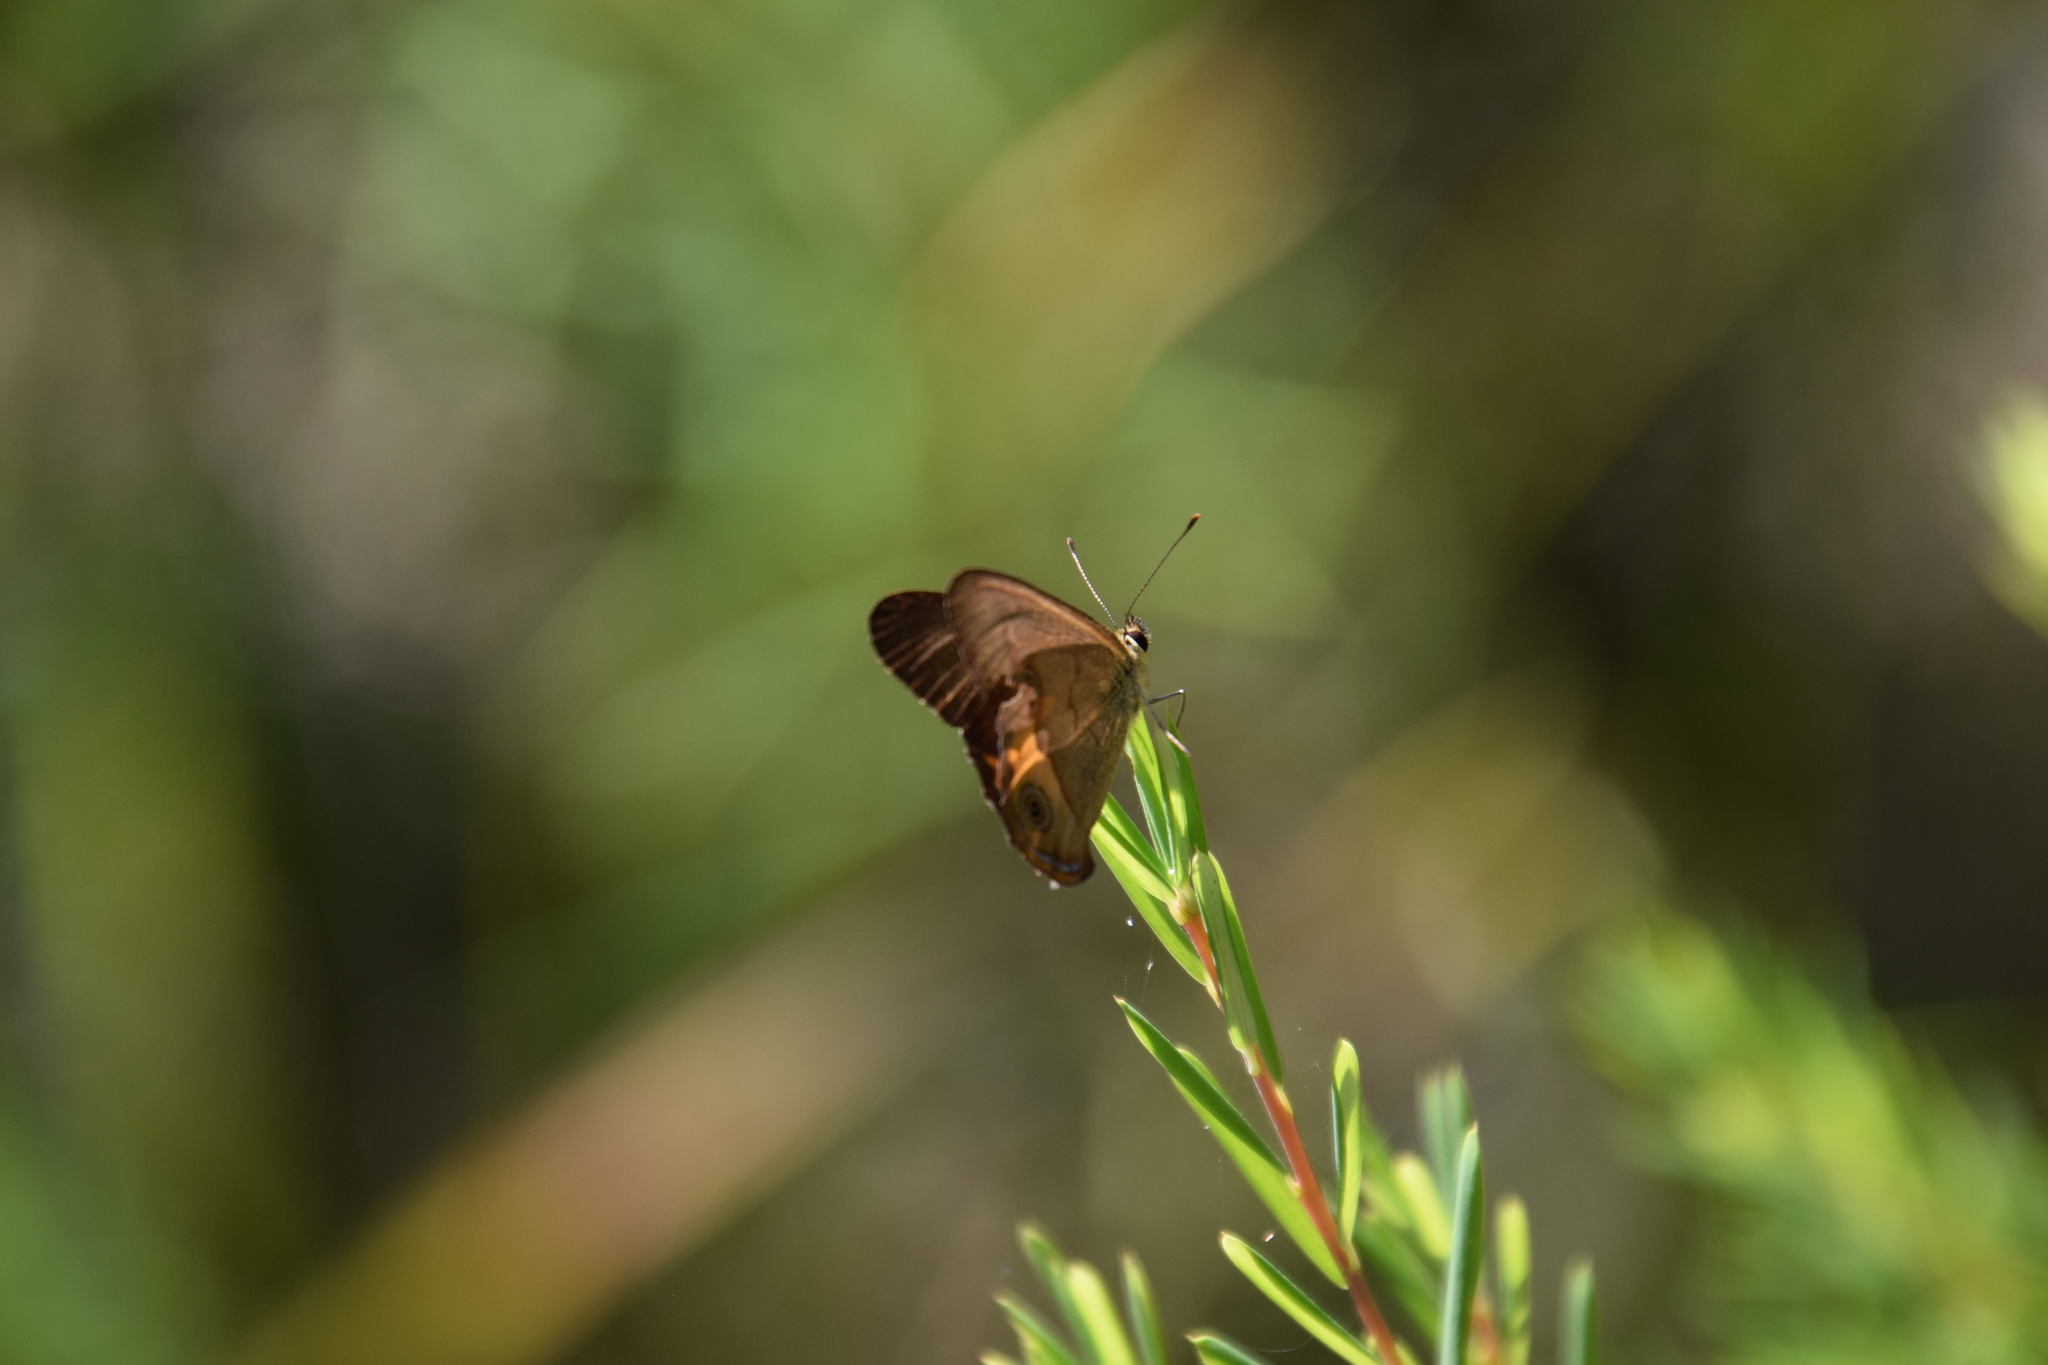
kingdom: Animalia
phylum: Arthropoda
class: Insecta
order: Lepidoptera
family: Nymphalidae
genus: Hypocysta
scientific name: Hypocysta metirius
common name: Brown ringlet
